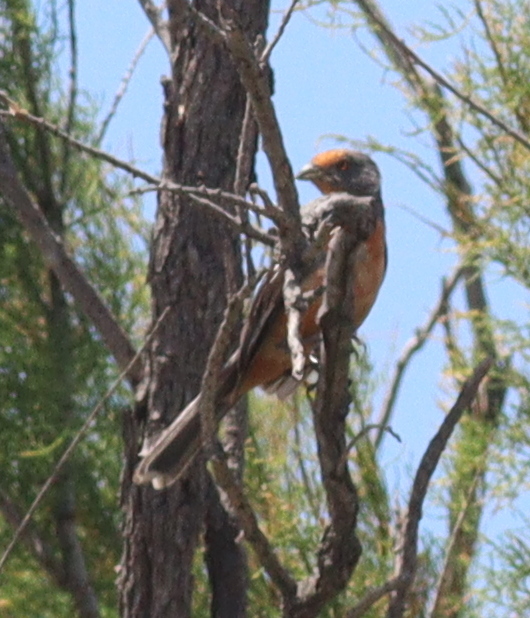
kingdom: Animalia
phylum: Chordata
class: Aves
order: Passeriformes
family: Cotingidae
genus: Phytotoma
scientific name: Phytotoma rutila
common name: White-tipped plantcutter
